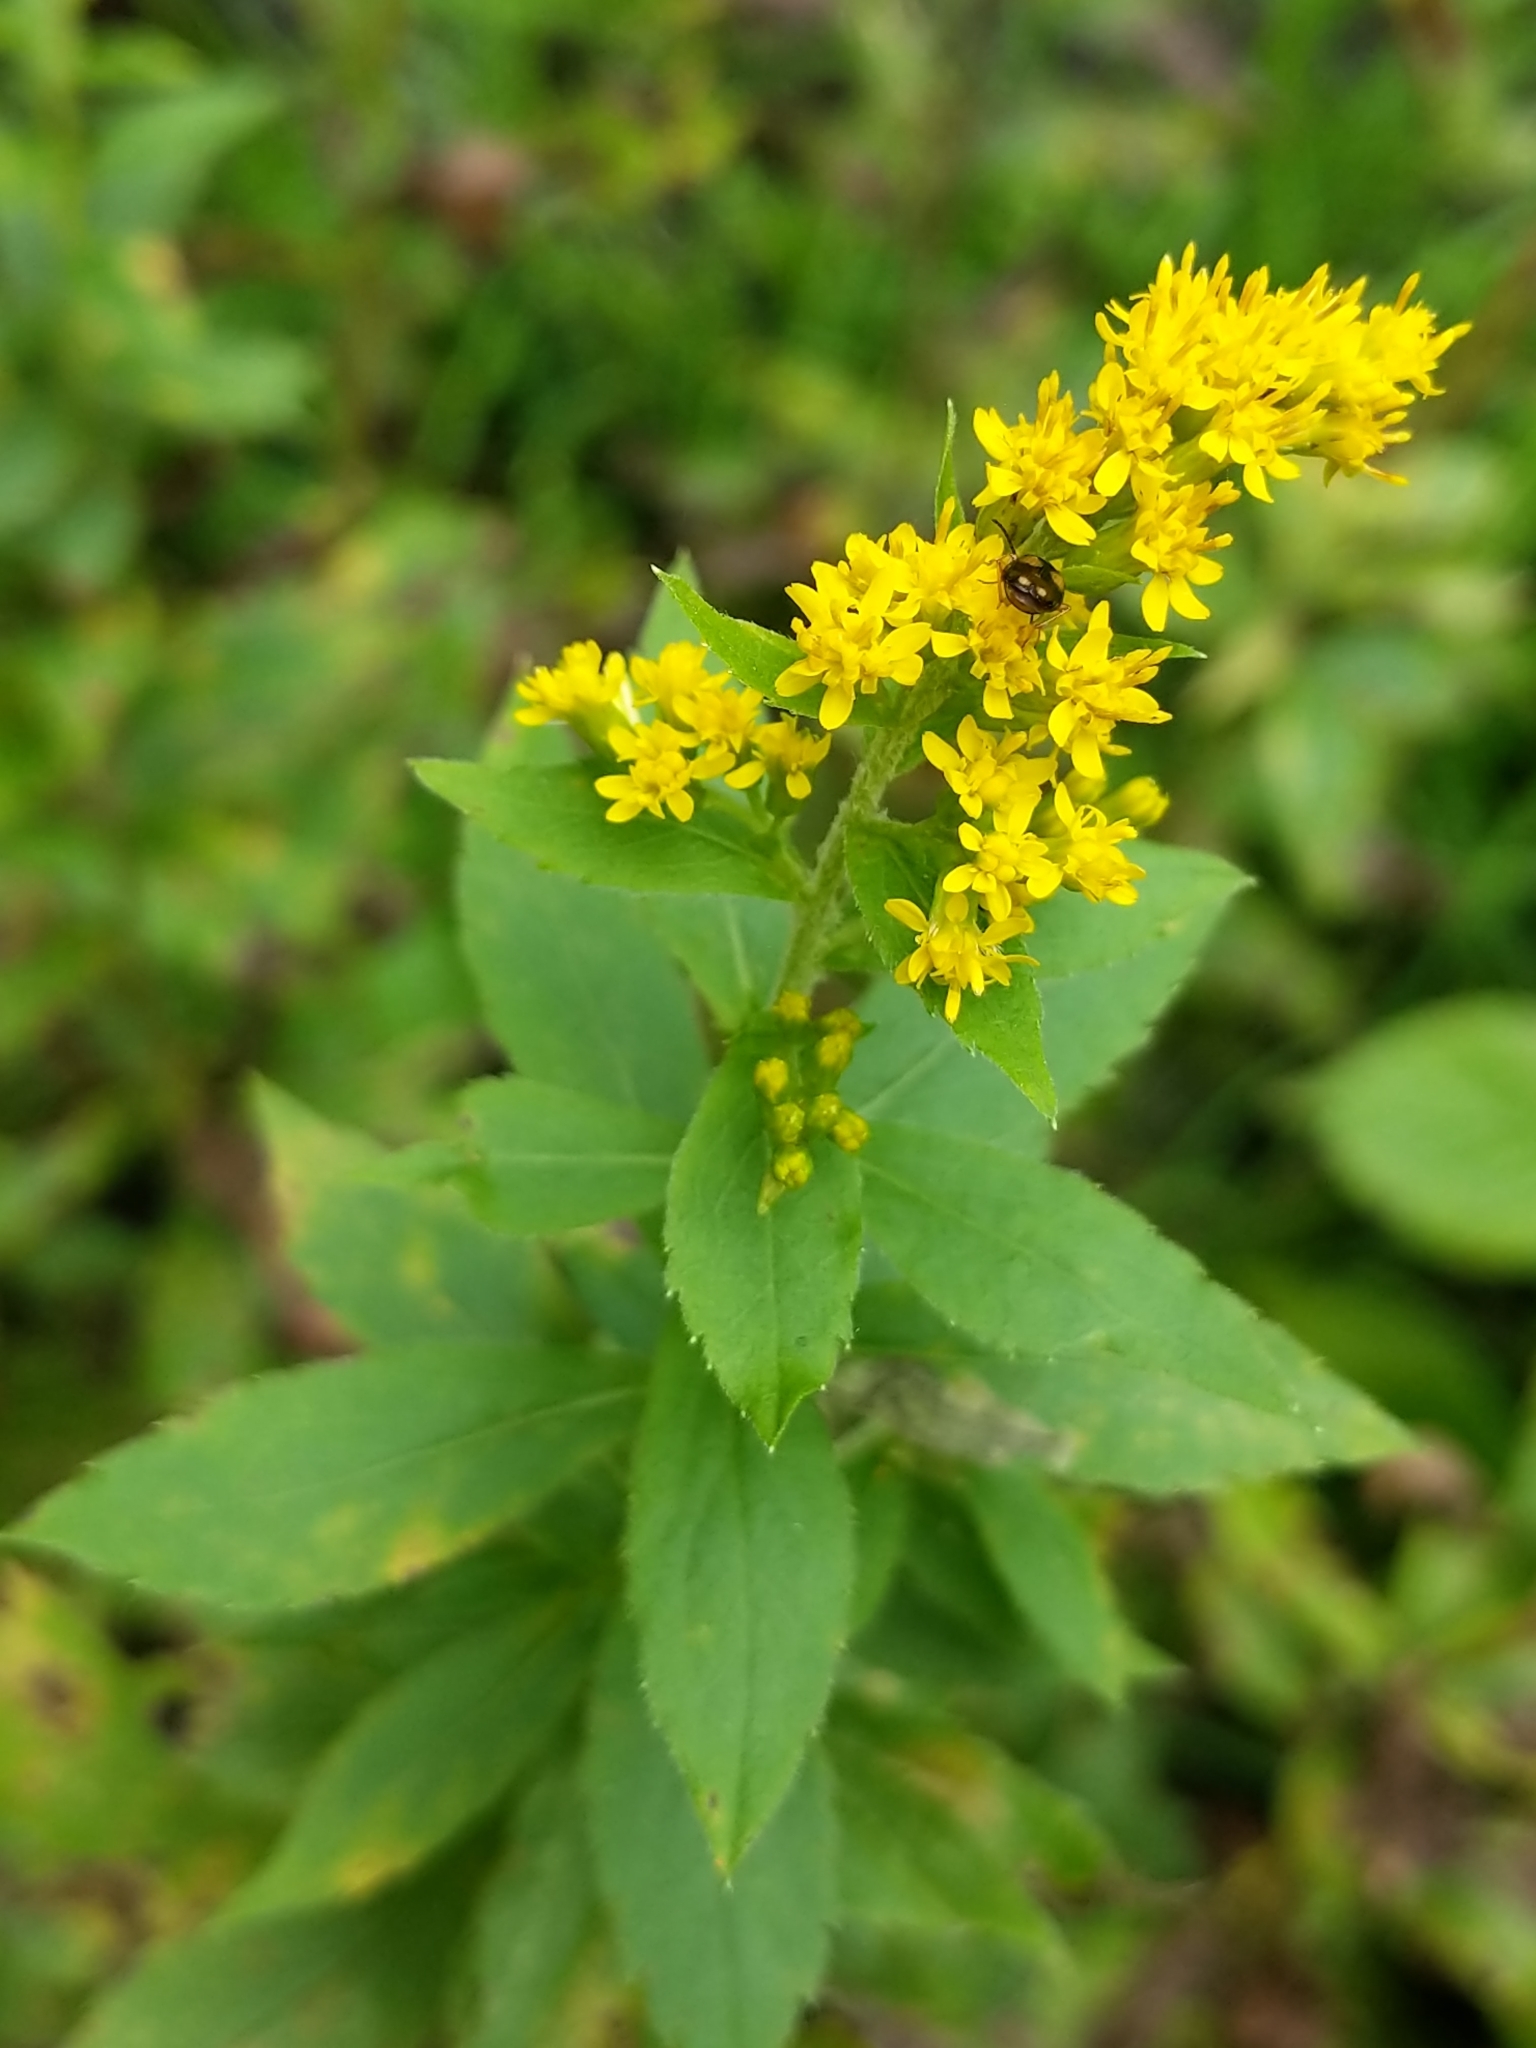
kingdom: Plantae
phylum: Tracheophyta
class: Magnoliopsida
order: Asterales
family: Asteraceae
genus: Solidago
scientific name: Solidago rugosa
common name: Rough-stemmed goldenrod
